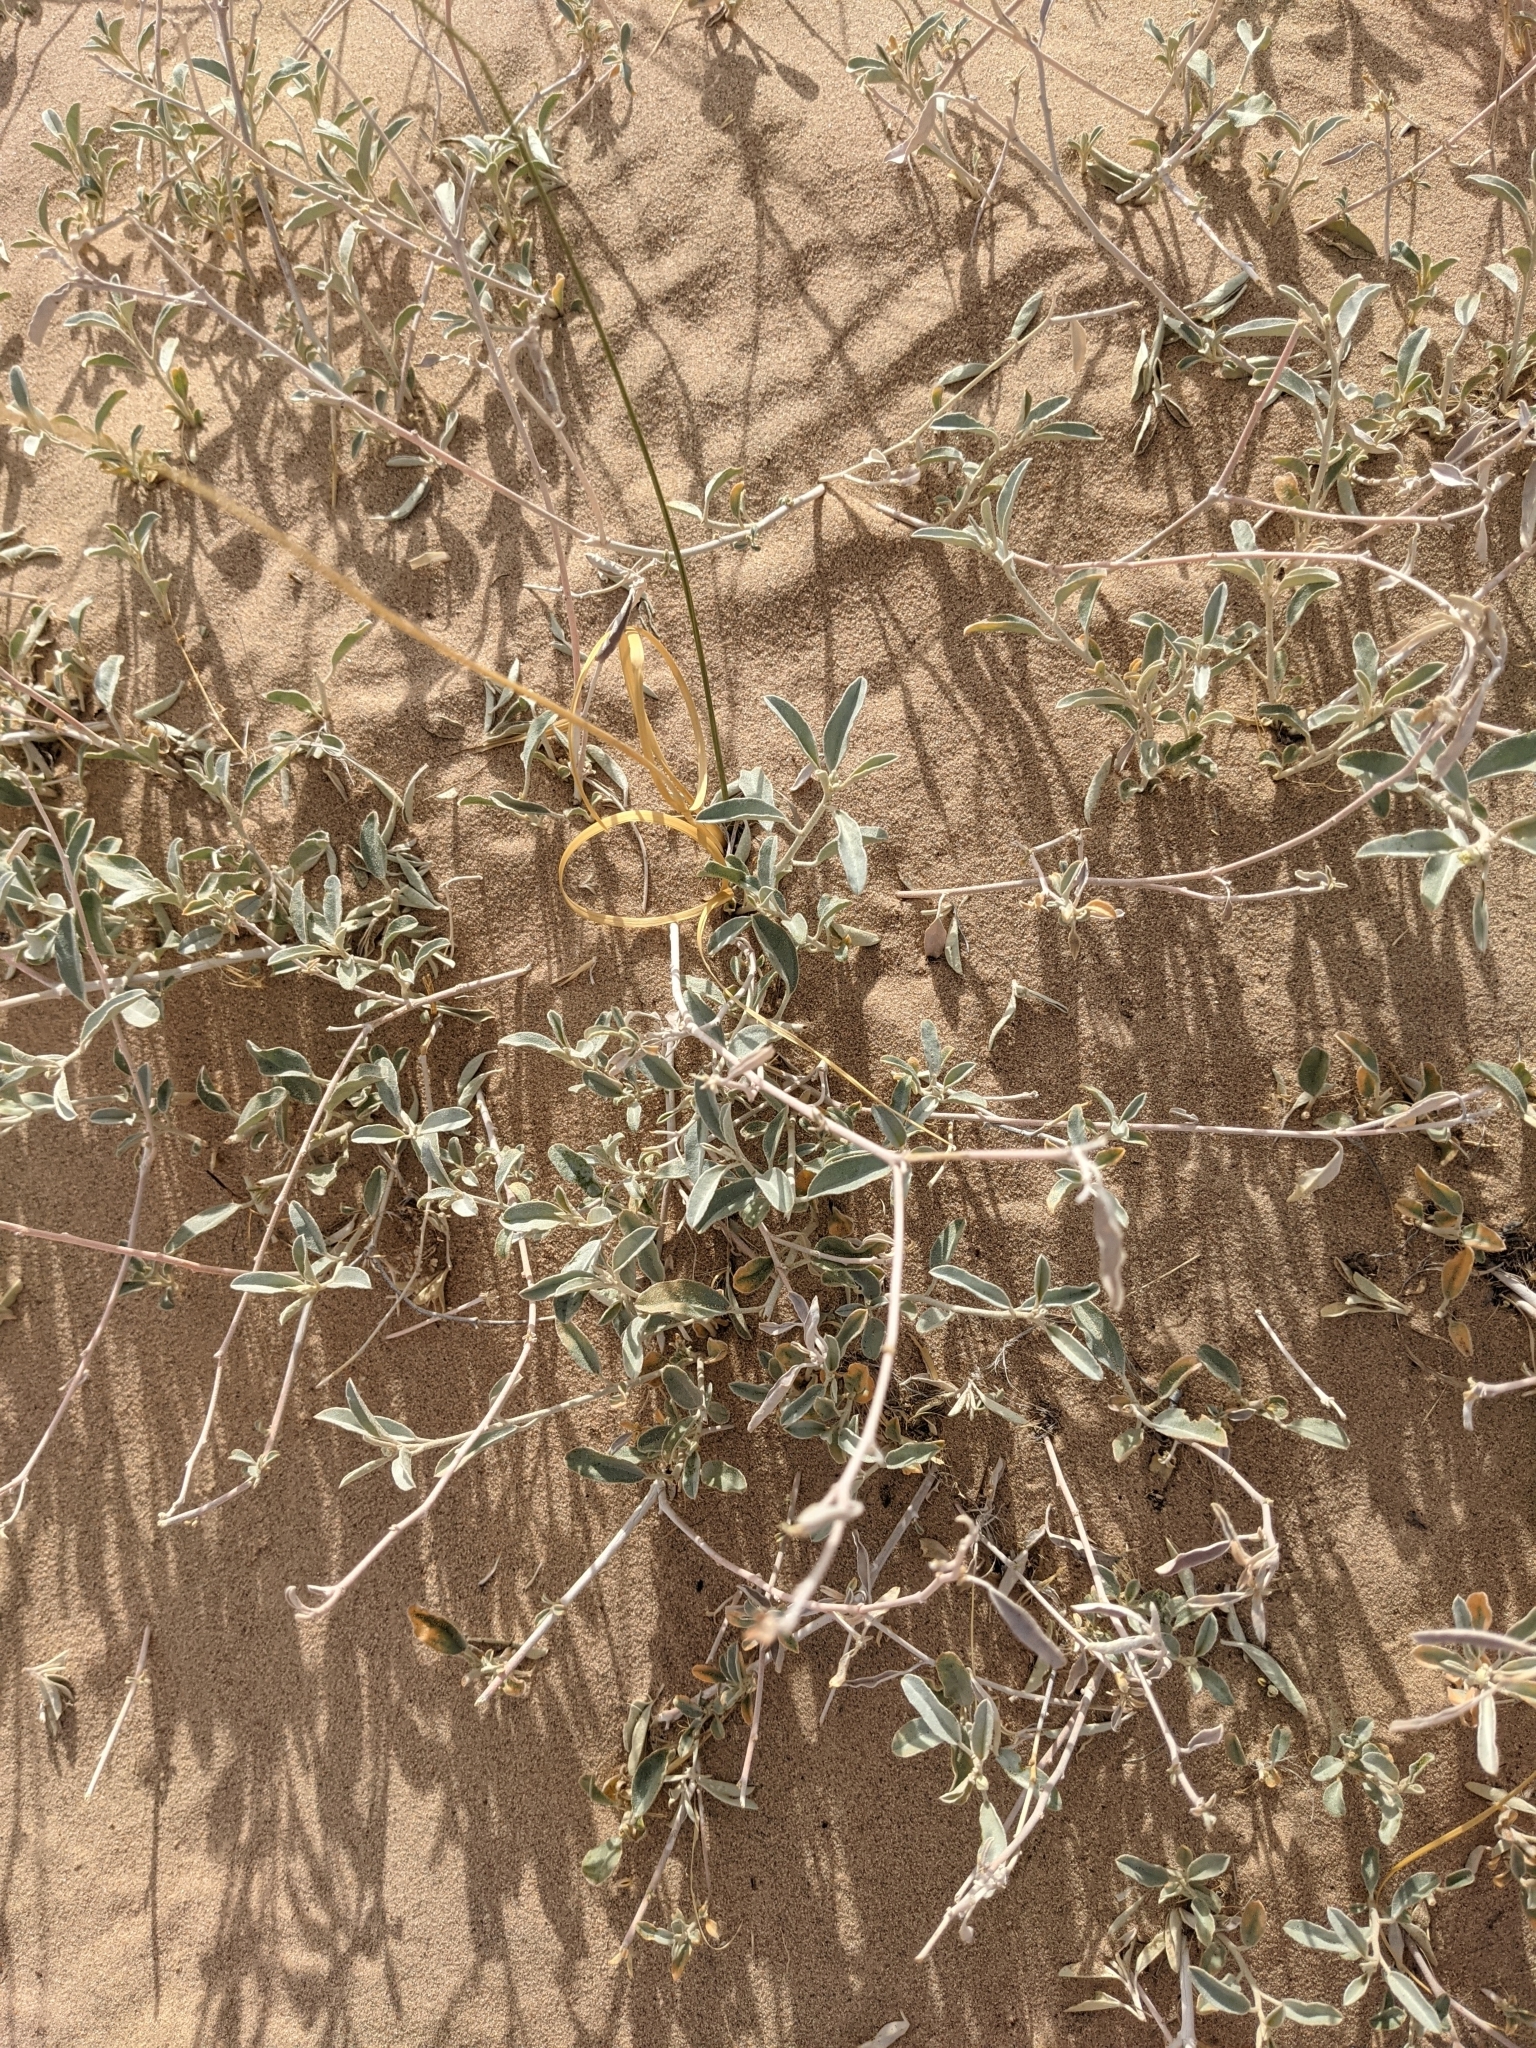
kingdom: Plantae
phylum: Tracheophyta
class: Magnoliopsida
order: Malpighiales
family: Euphorbiaceae
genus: Croton
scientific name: Croton californicus
